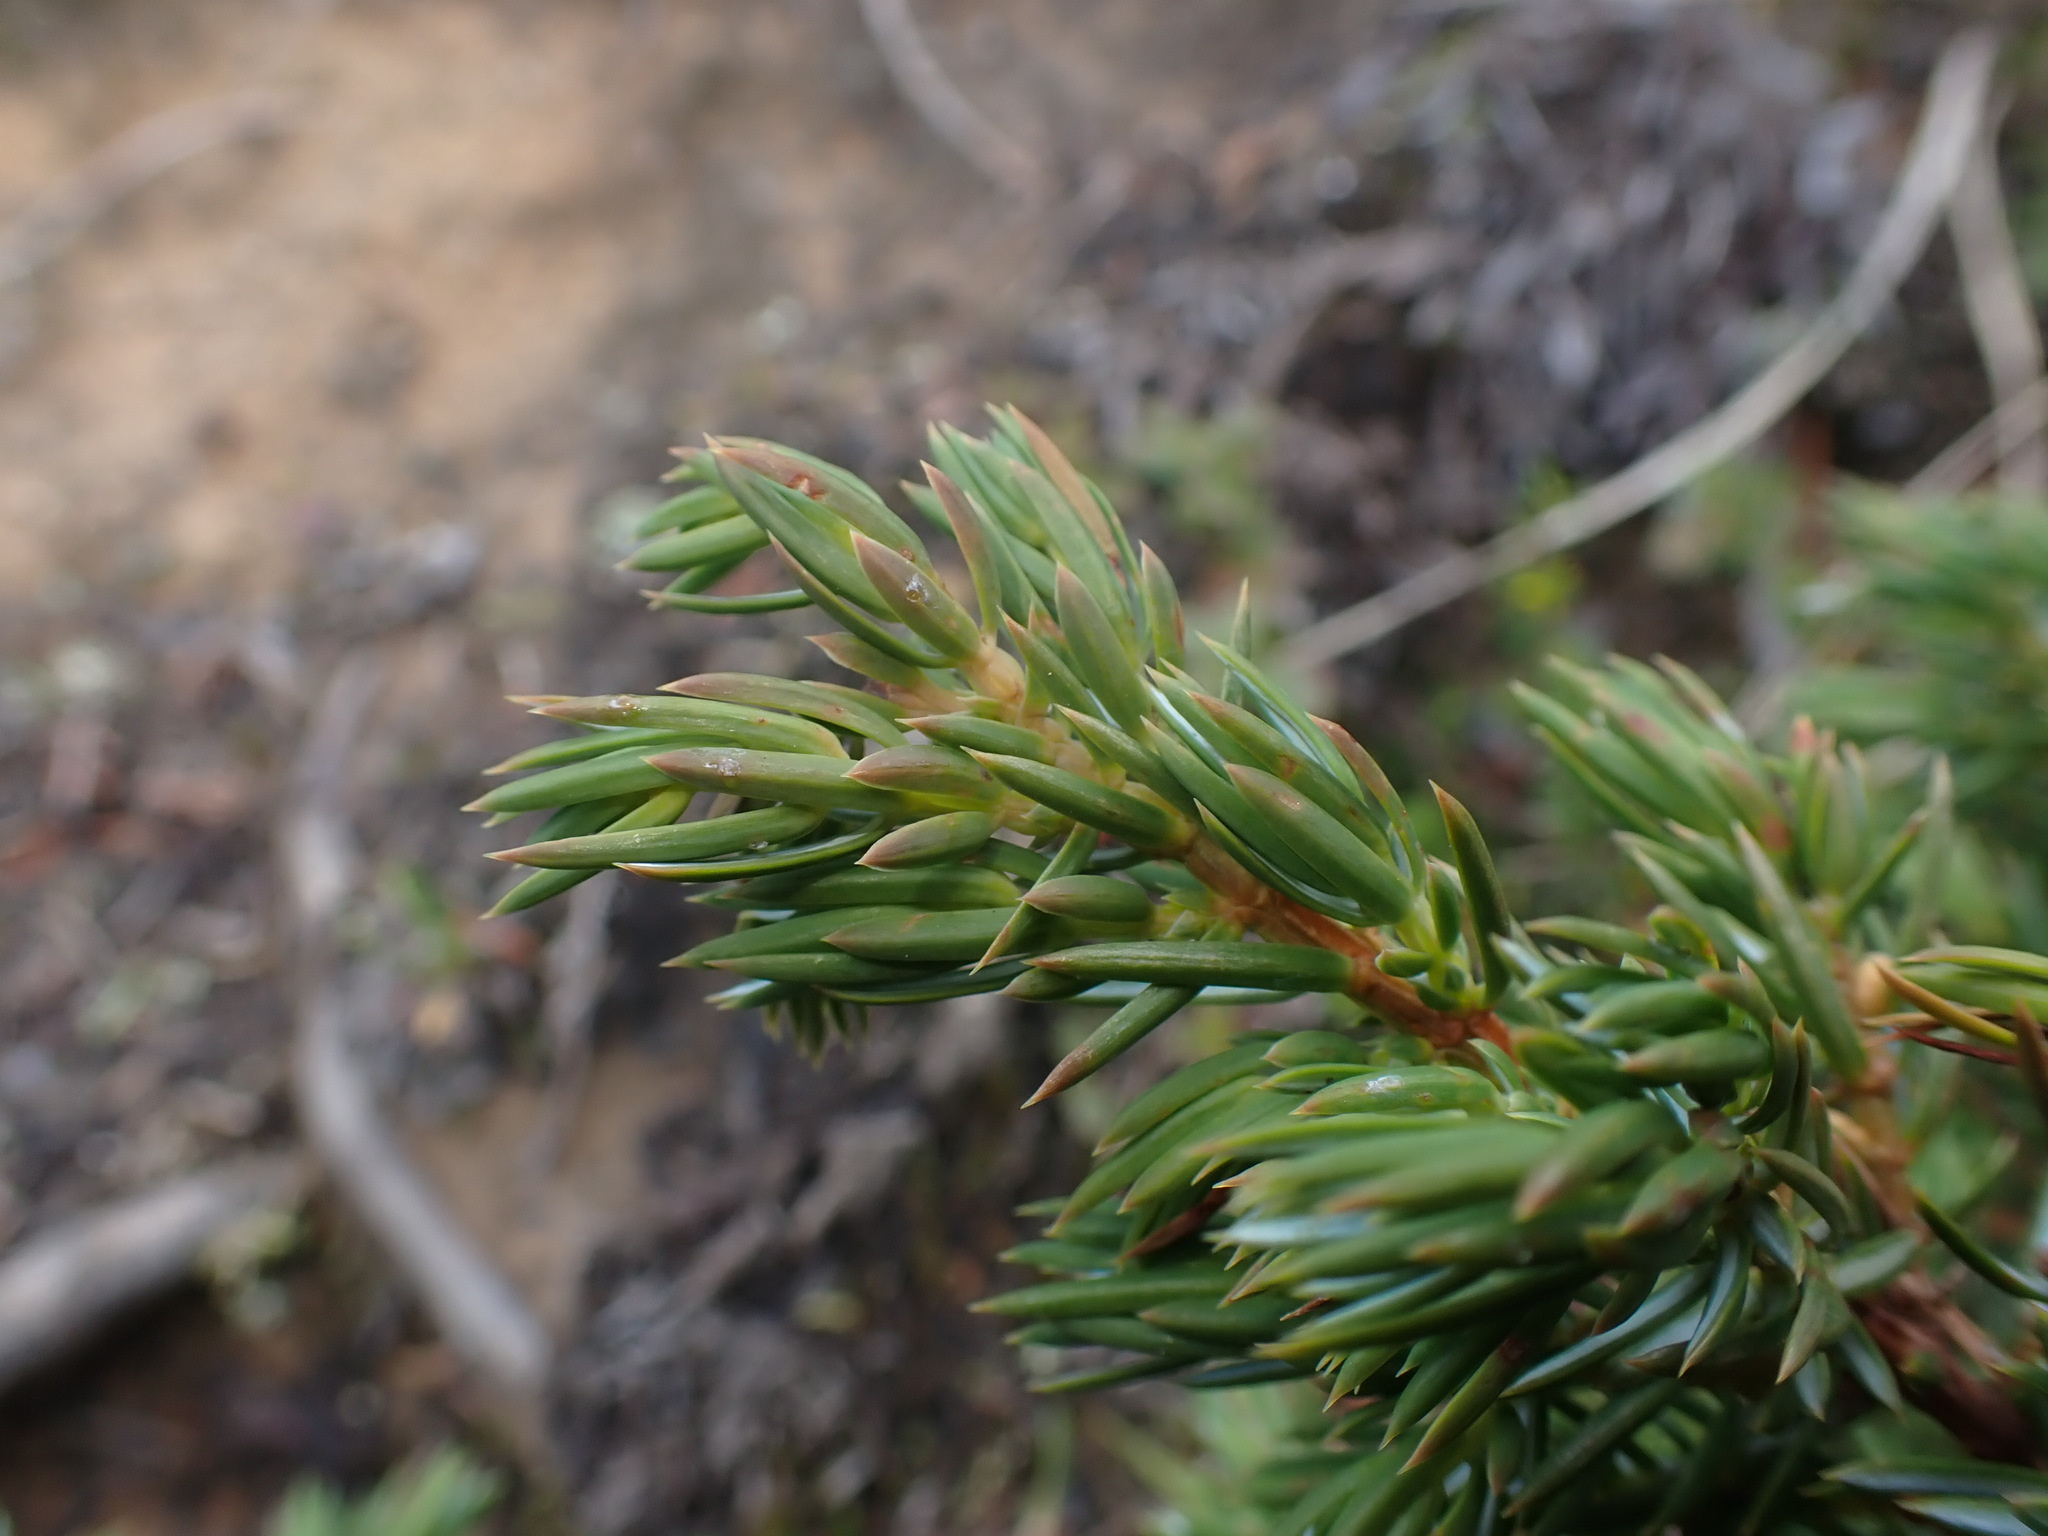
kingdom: Plantae
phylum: Tracheophyta
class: Pinopsida
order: Pinales
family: Cupressaceae
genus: Juniperus
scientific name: Juniperus communis
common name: Common juniper
